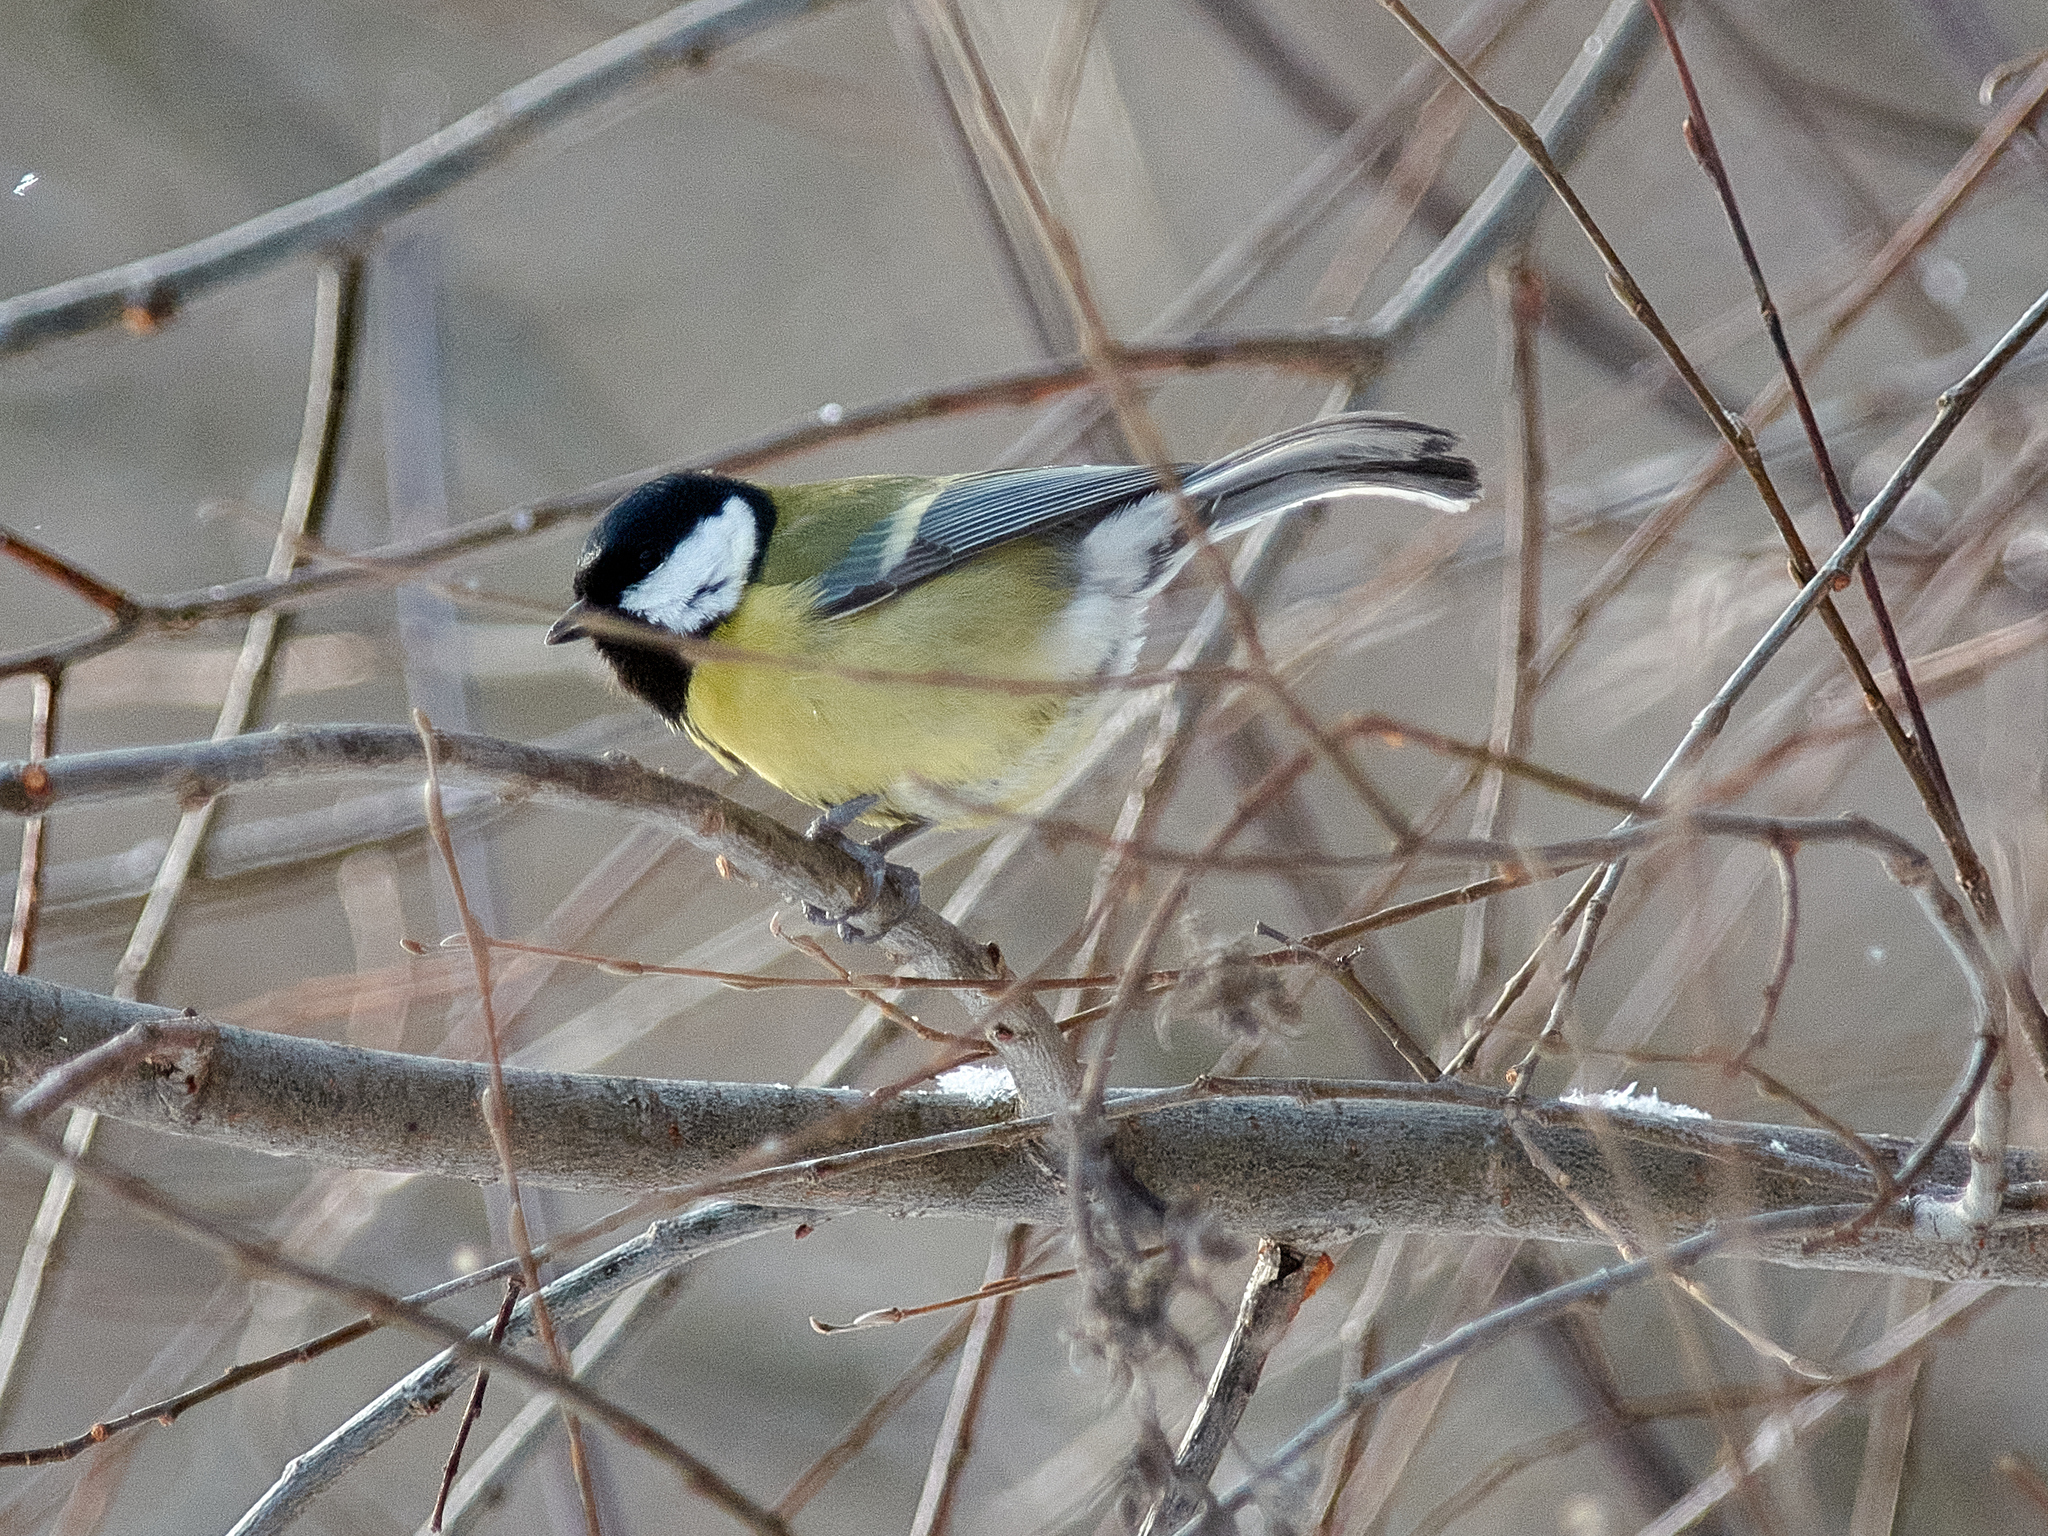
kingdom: Animalia
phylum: Chordata
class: Aves
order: Passeriformes
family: Paridae
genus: Parus
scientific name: Parus major
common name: Great tit
